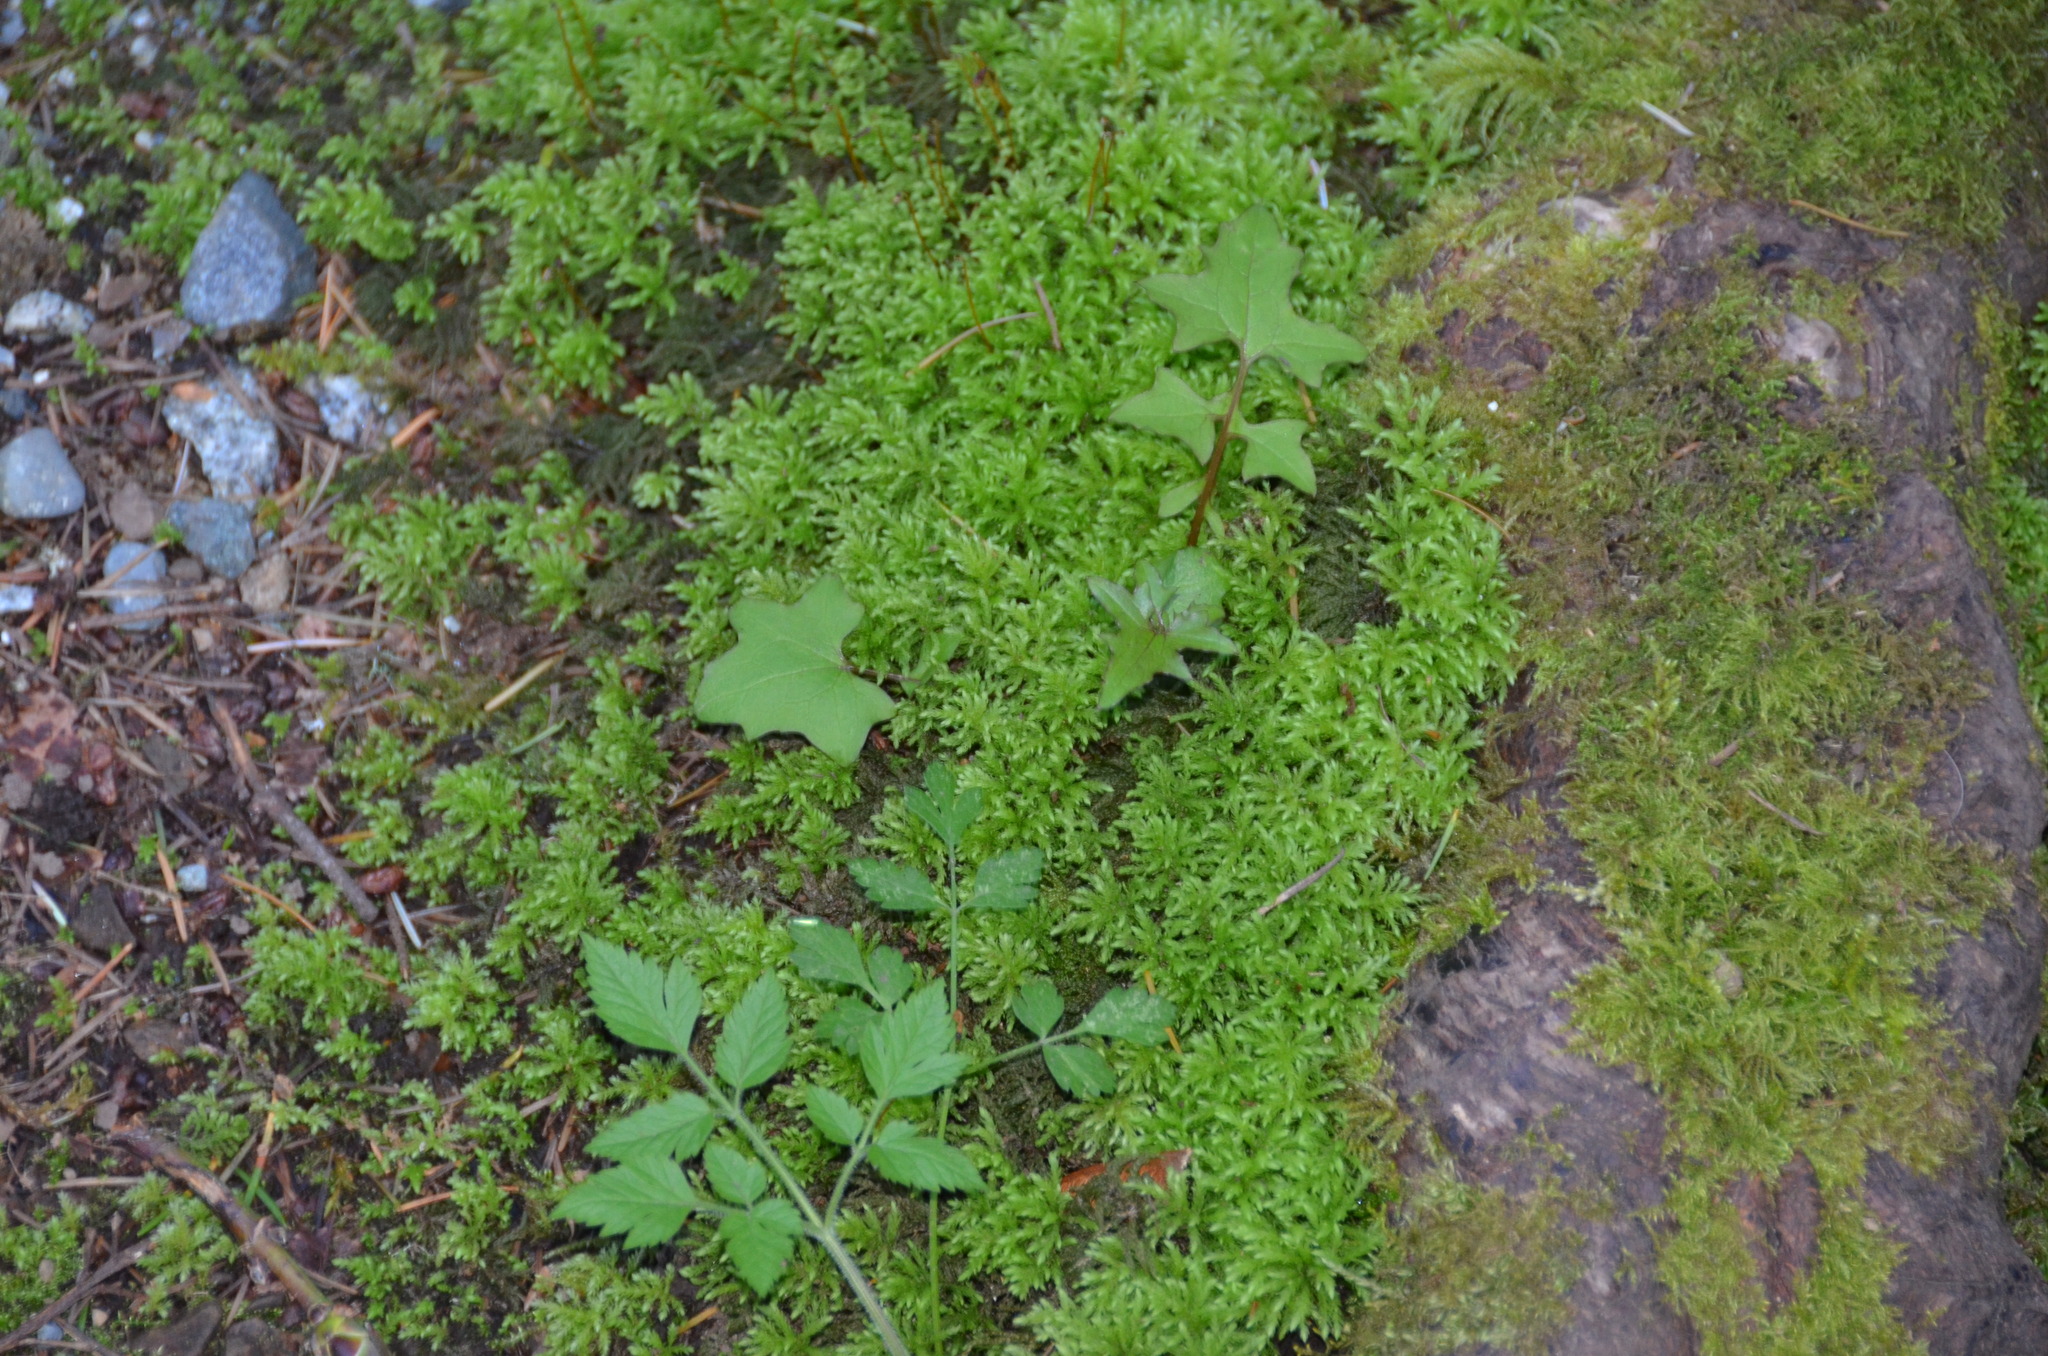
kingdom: Plantae
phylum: Bryophyta
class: Bryopsida
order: Bryales
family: Mniaceae
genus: Leucolepis
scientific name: Leucolepis acanthoneura
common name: Leucolepis umbrella moss
